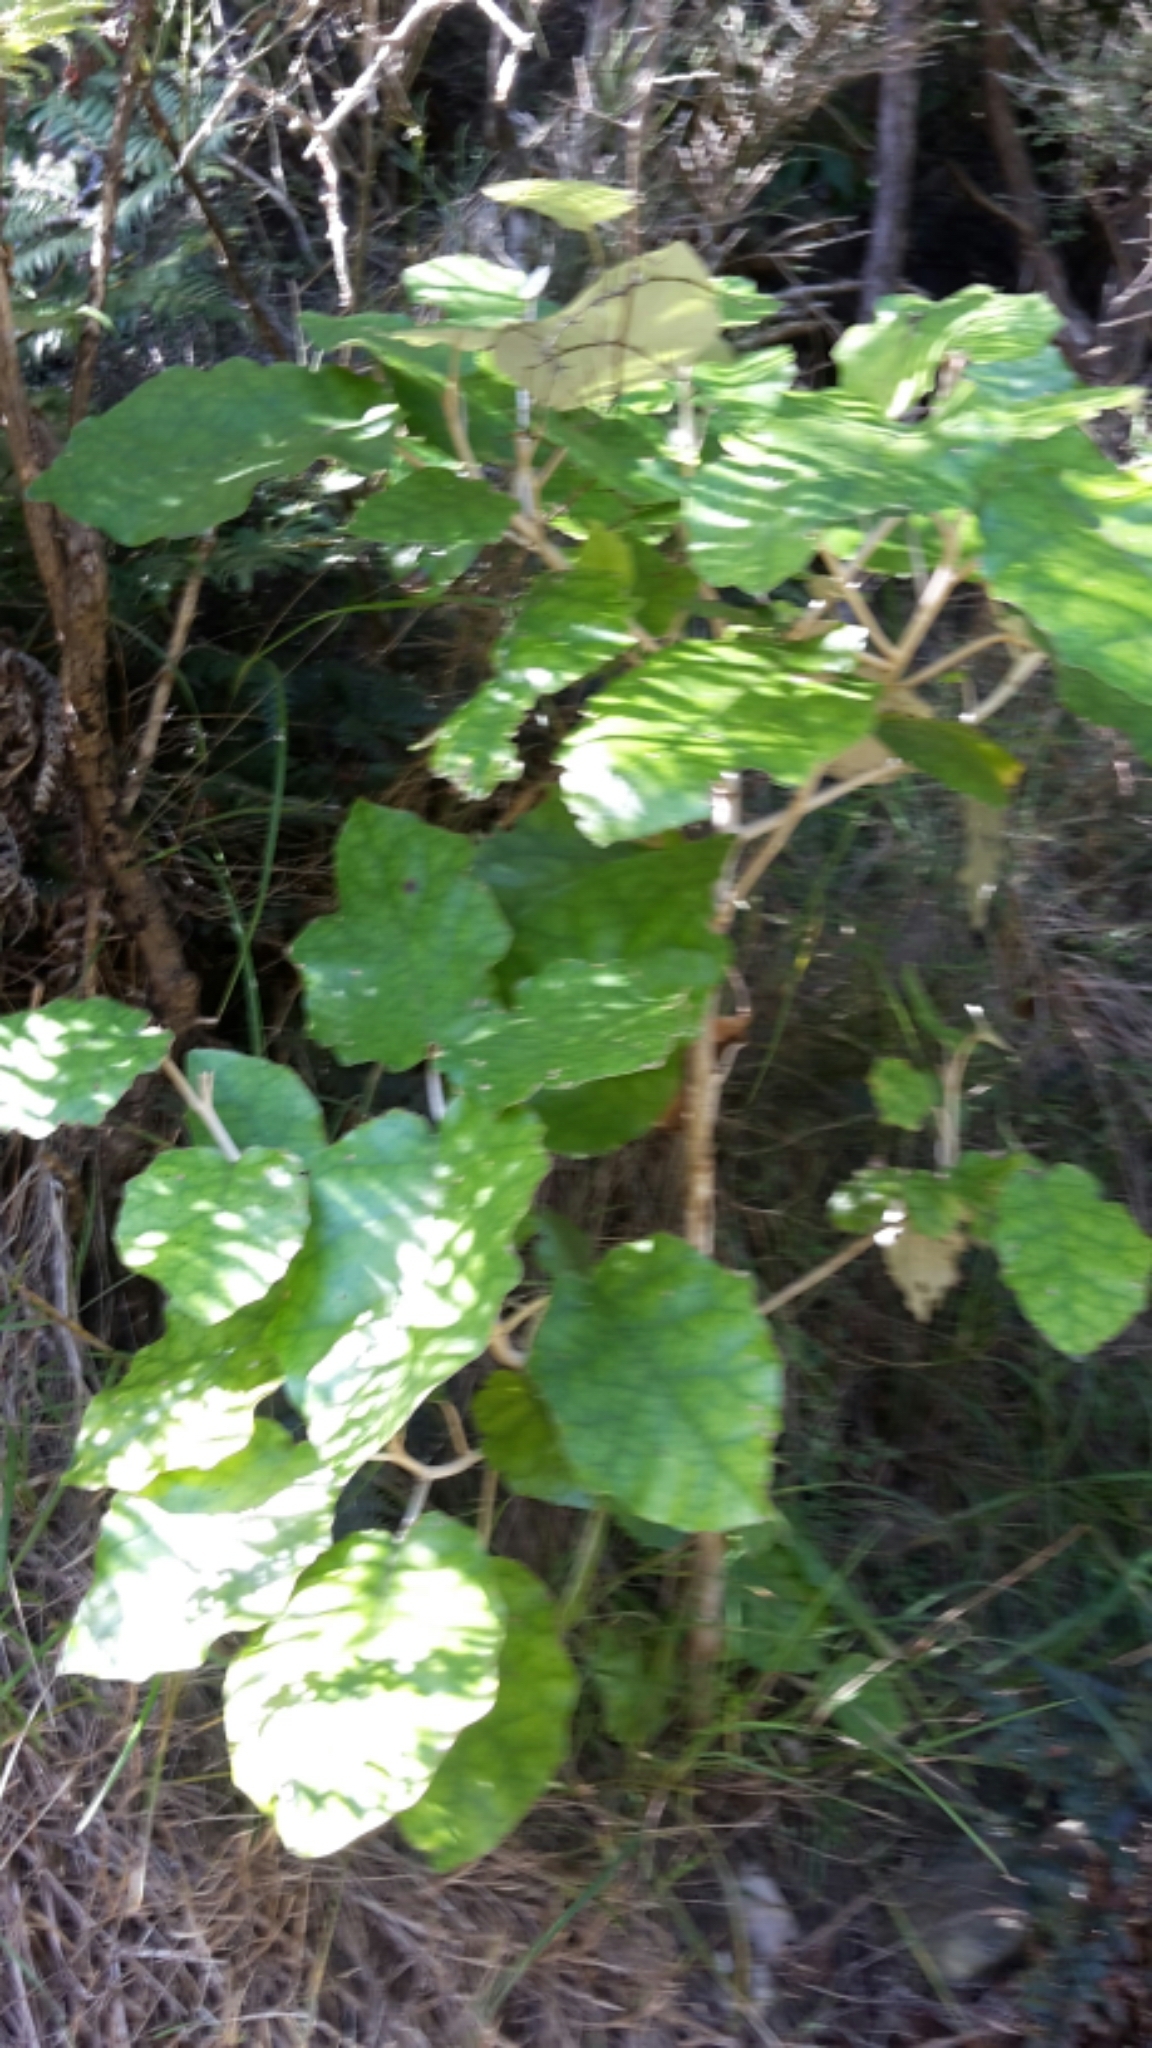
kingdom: Plantae
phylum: Tracheophyta
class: Magnoliopsida
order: Asterales
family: Asteraceae
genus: Brachyglottis
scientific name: Brachyglottis repanda
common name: Hedge ragwort
